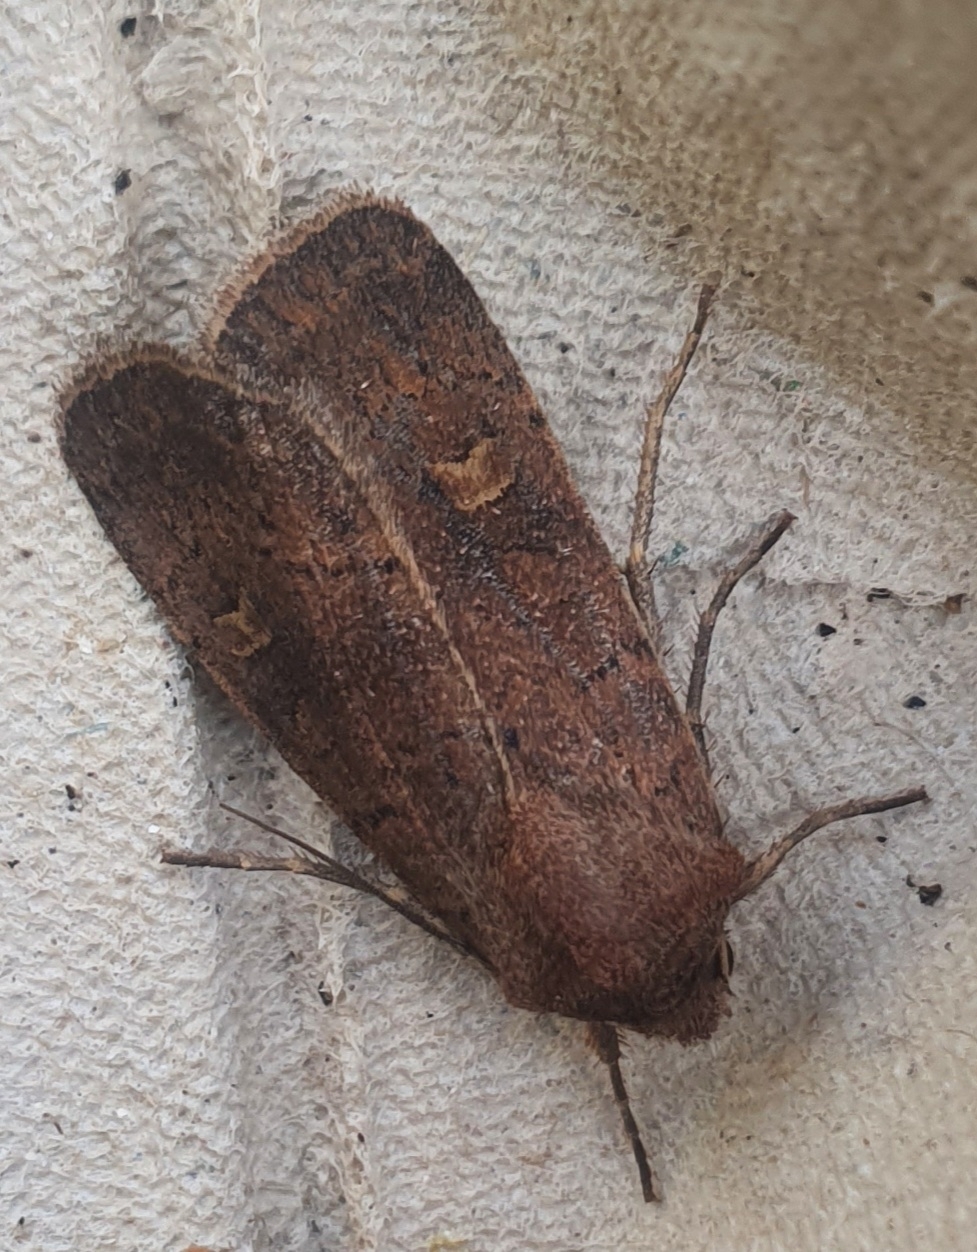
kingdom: Animalia
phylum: Arthropoda
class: Insecta
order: Lepidoptera
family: Noctuidae
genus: Xestia
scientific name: Xestia xanthographa
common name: Square-spot rustic
